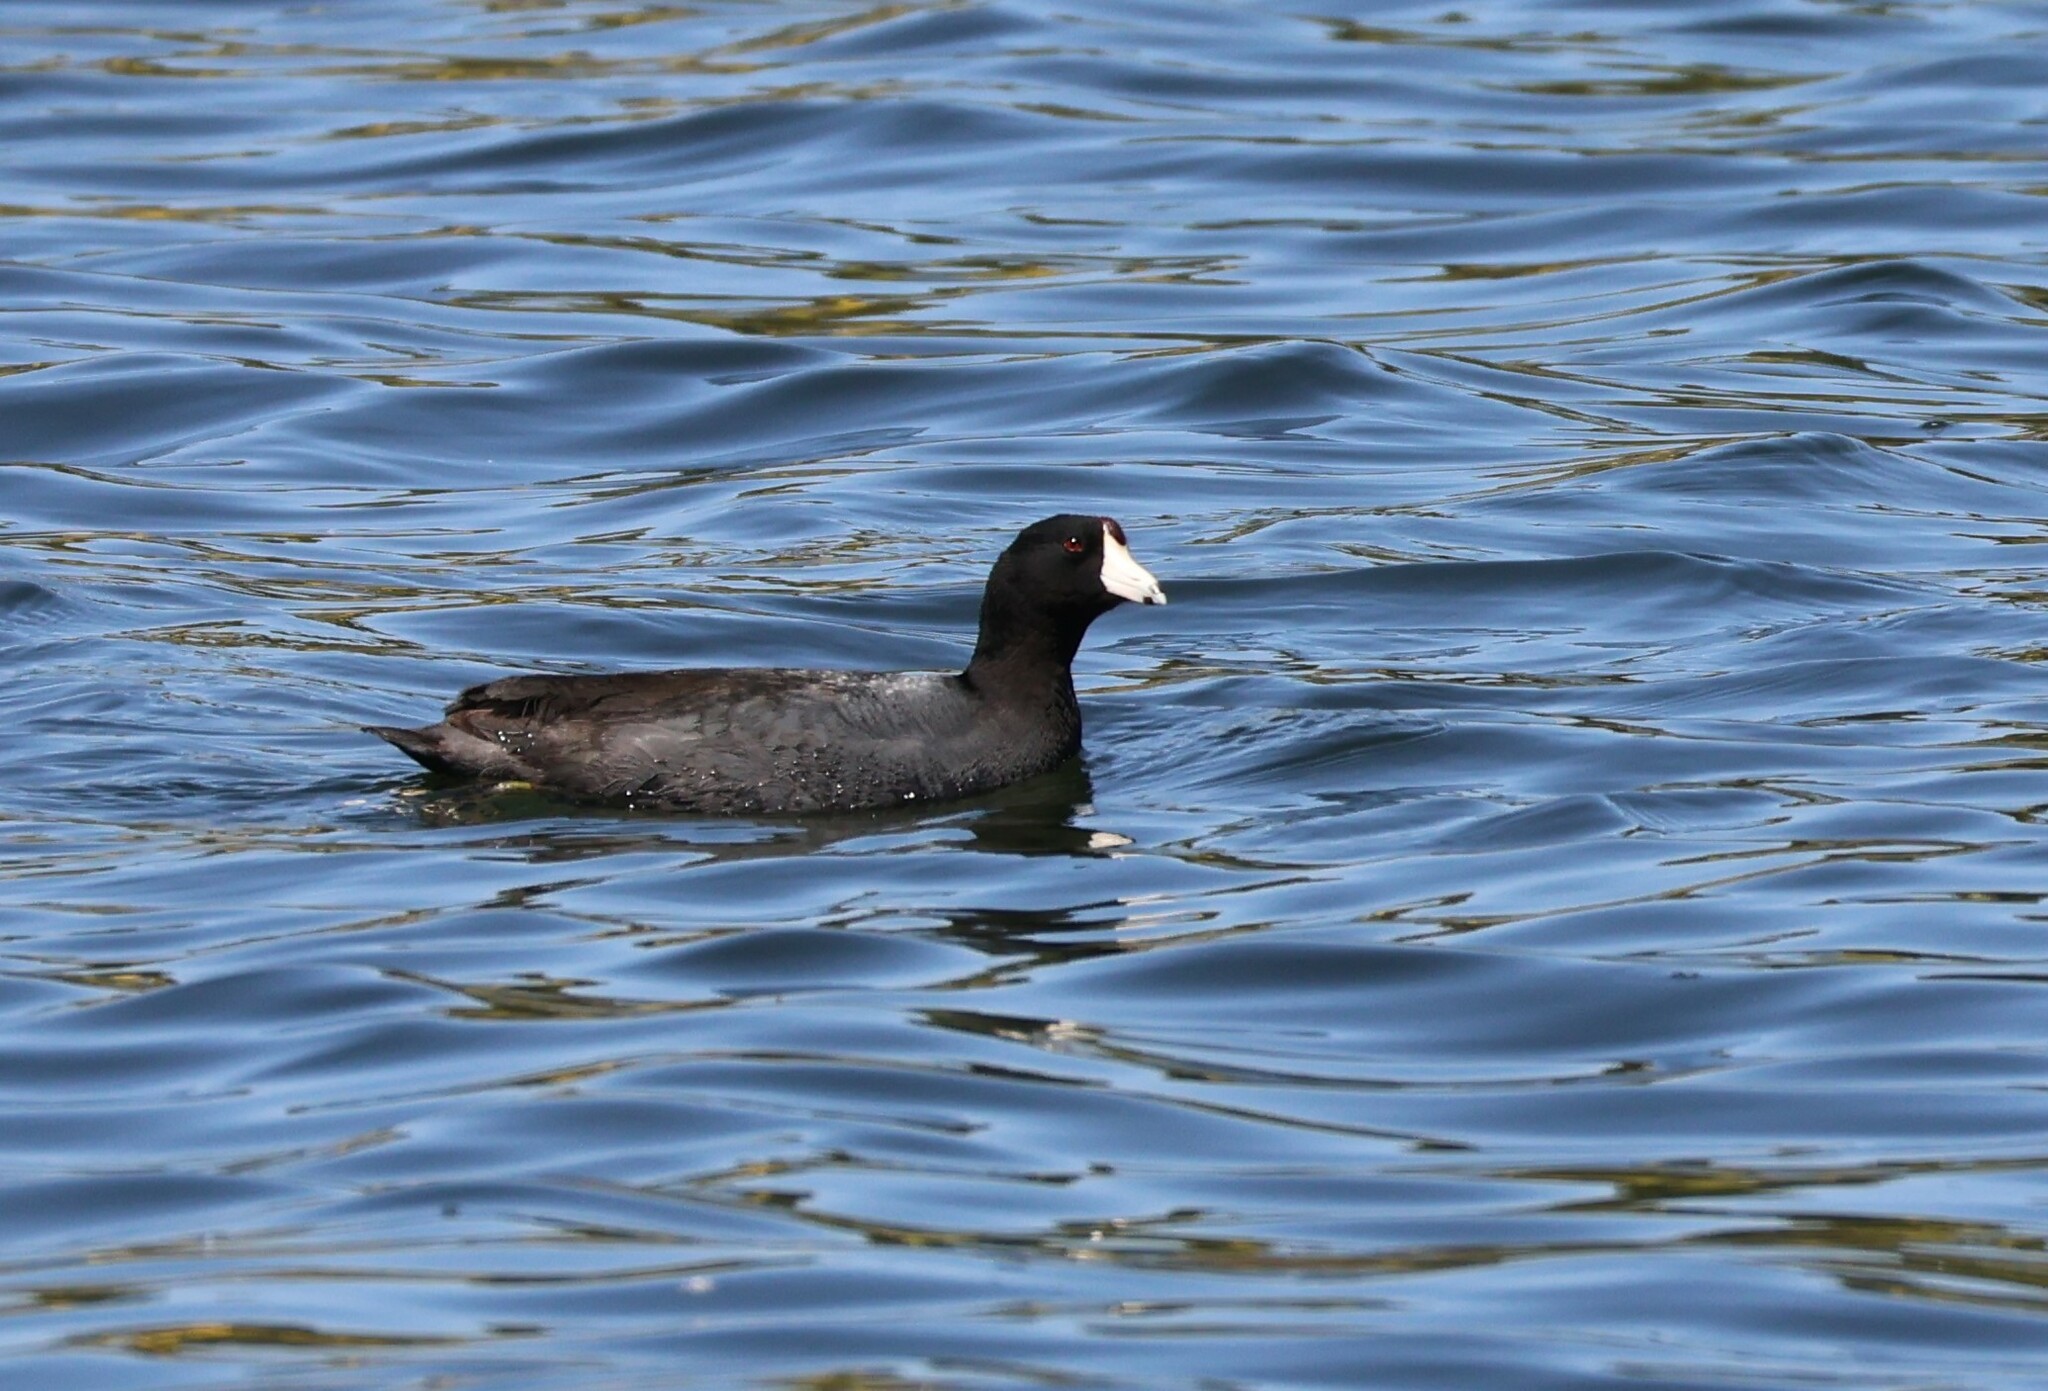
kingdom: Animalia
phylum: Chordata
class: Aves
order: Gruiformes
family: Rallidae
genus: Fulica
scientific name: Fulica americana
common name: American coot
